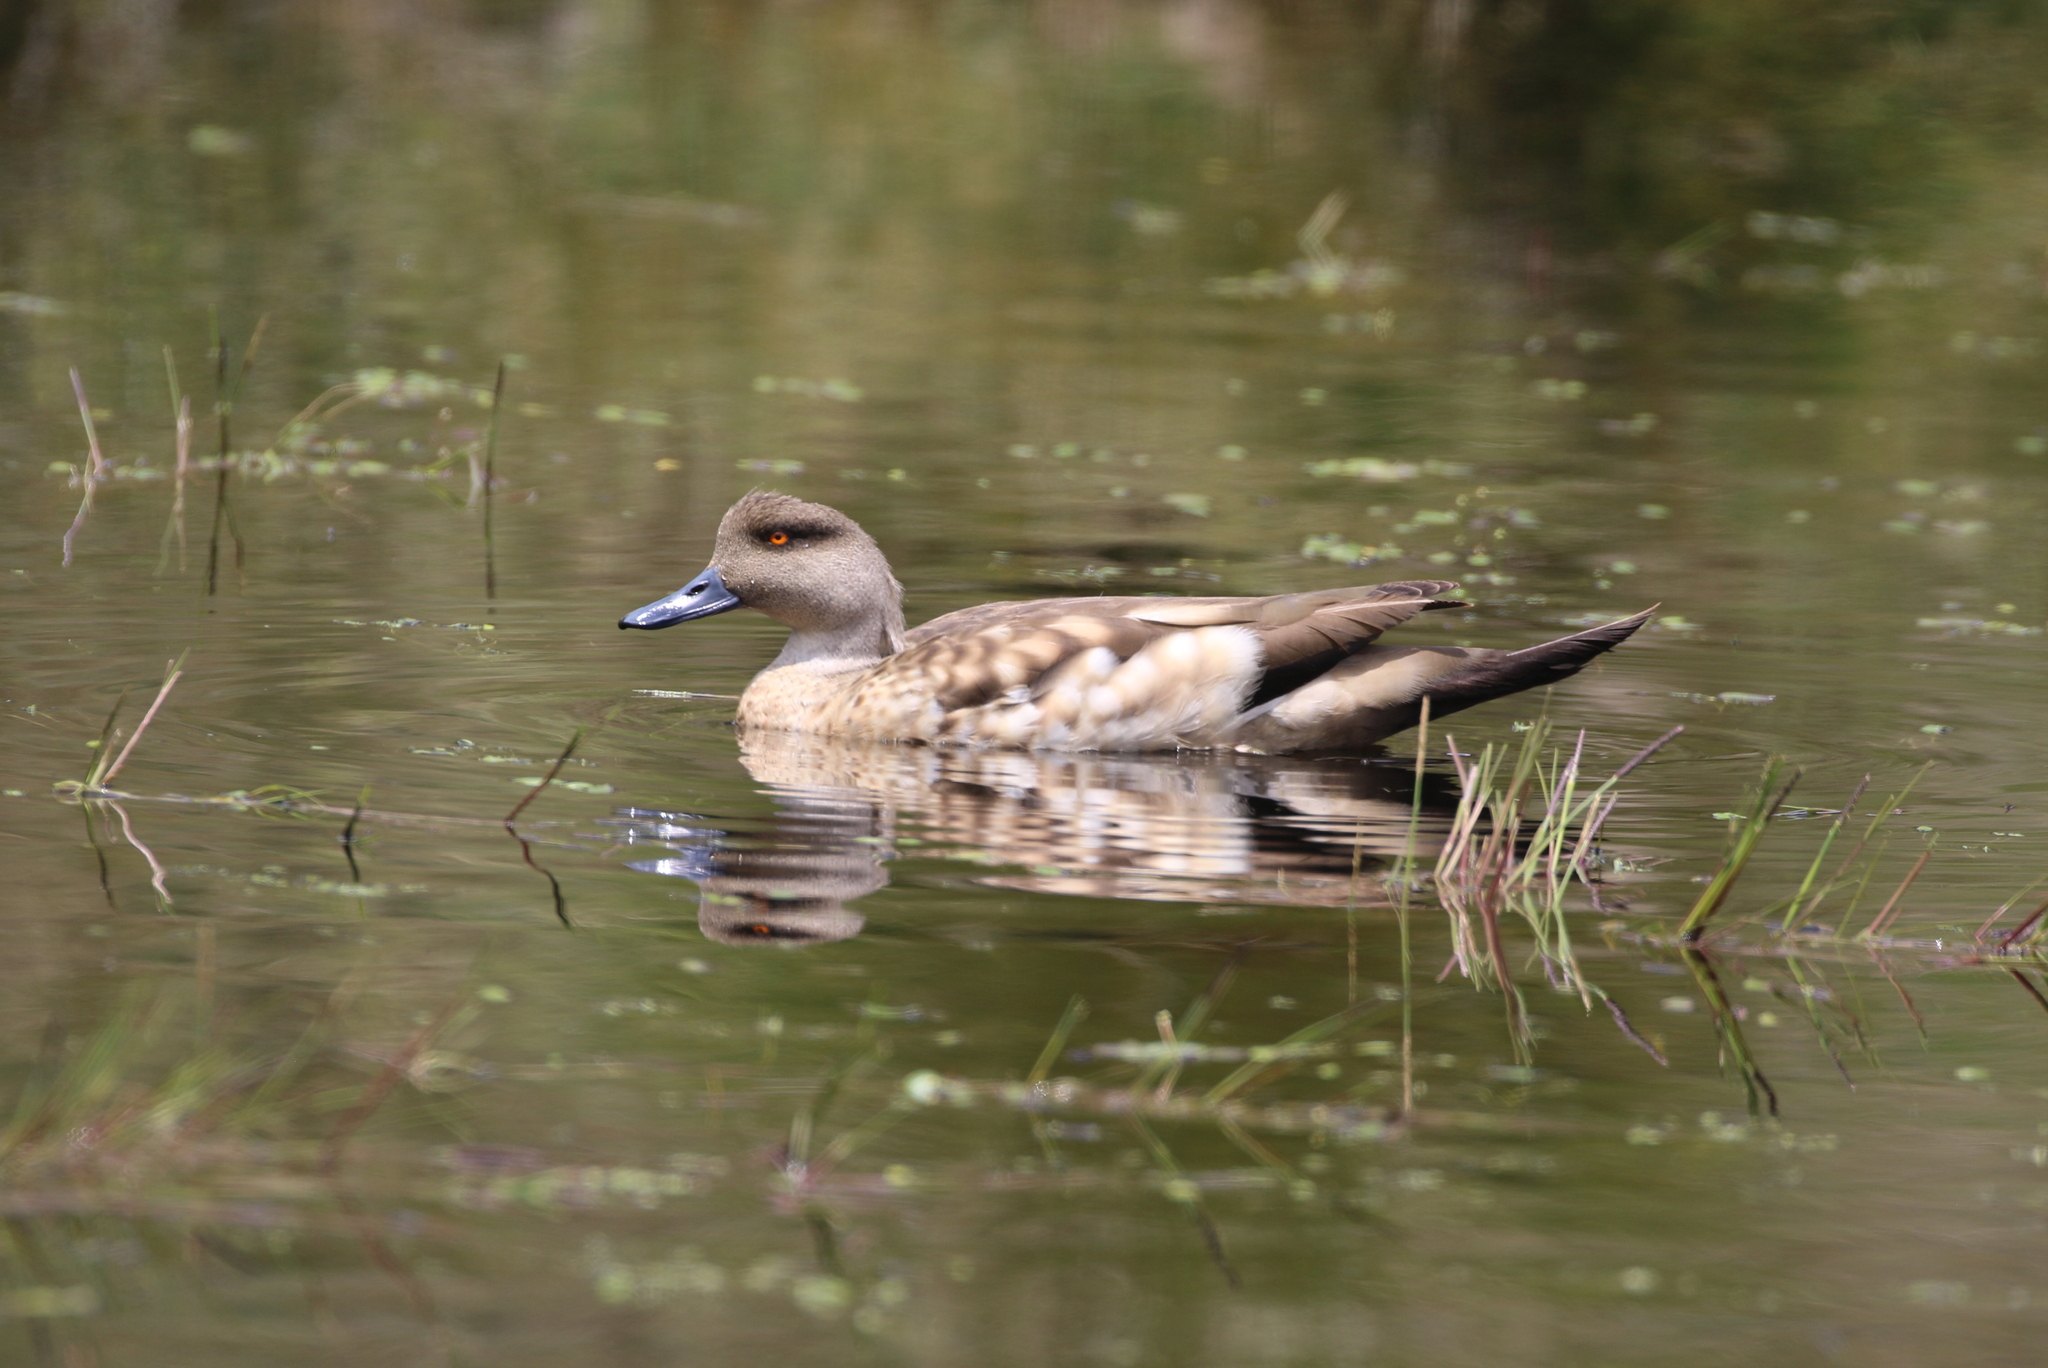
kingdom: Animalia
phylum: Chordata
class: Aves
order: Anseriformes
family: Anatidae
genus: Lophonetta
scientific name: Lophonetta specularioides
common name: Crested duck
